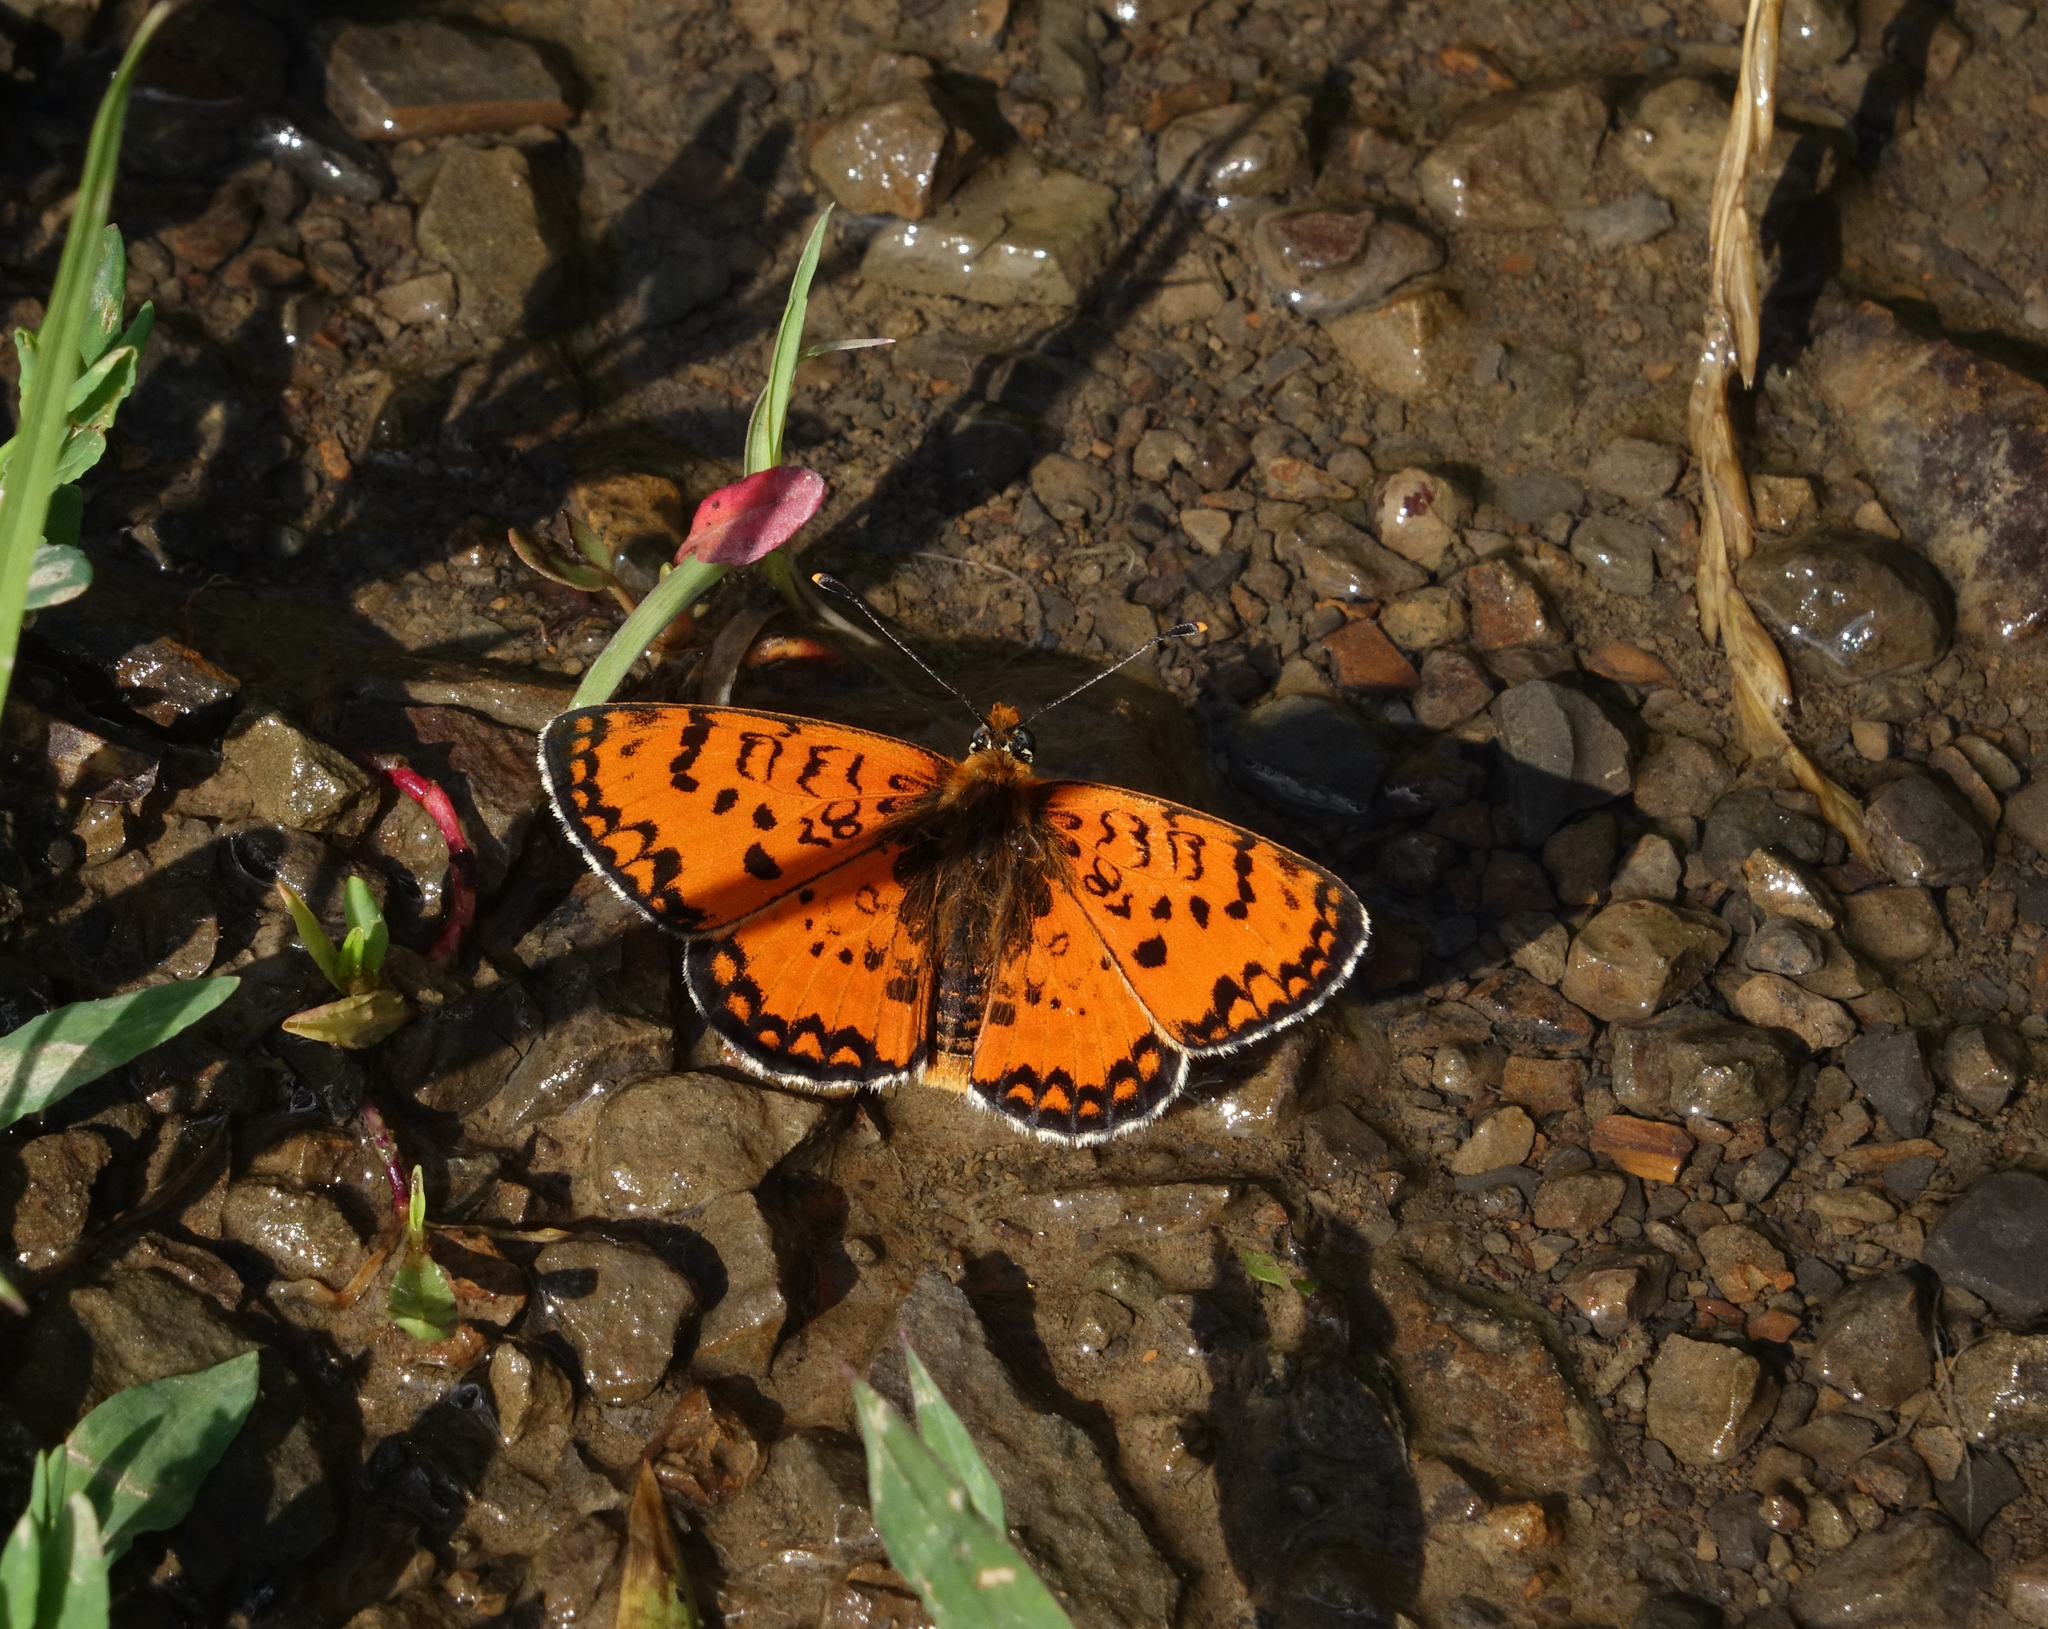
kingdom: Animalia
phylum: Arthropoda
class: Insecta
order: Lepidoptera
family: Nymphalidae
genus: Melitaea
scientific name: Melitaea cinxia
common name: Glanville fritillary
